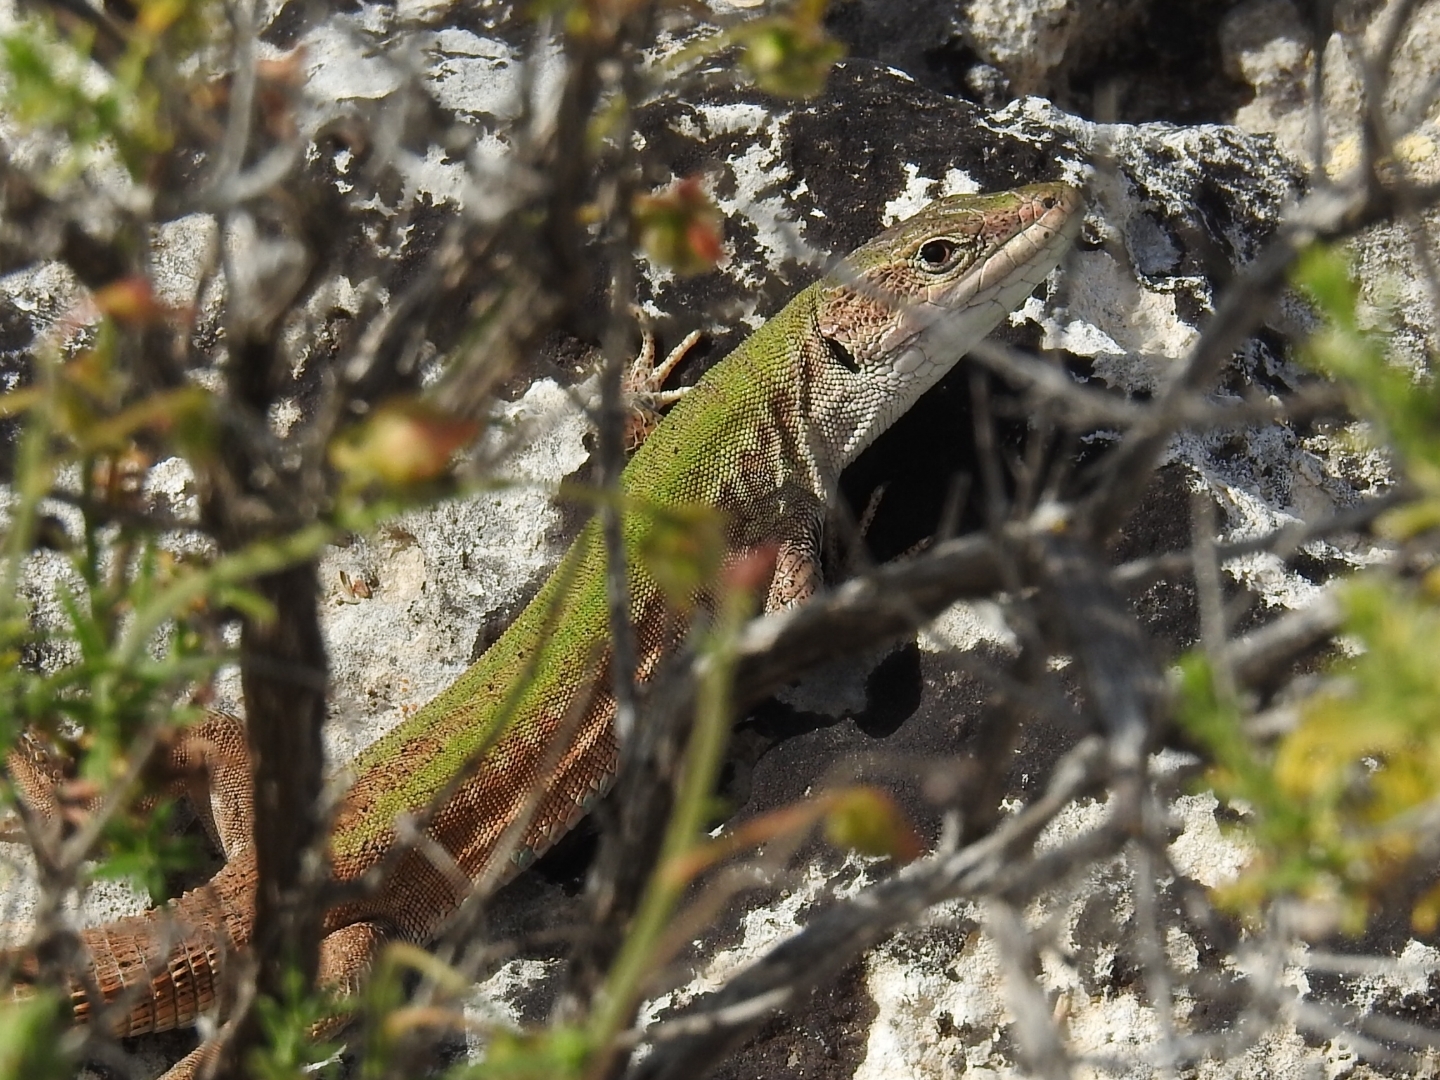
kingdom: Animalia
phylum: Chordata
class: Squamata
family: Lacertidae
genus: Podarcis
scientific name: Podarcis siculus
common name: Italian wall lizard
